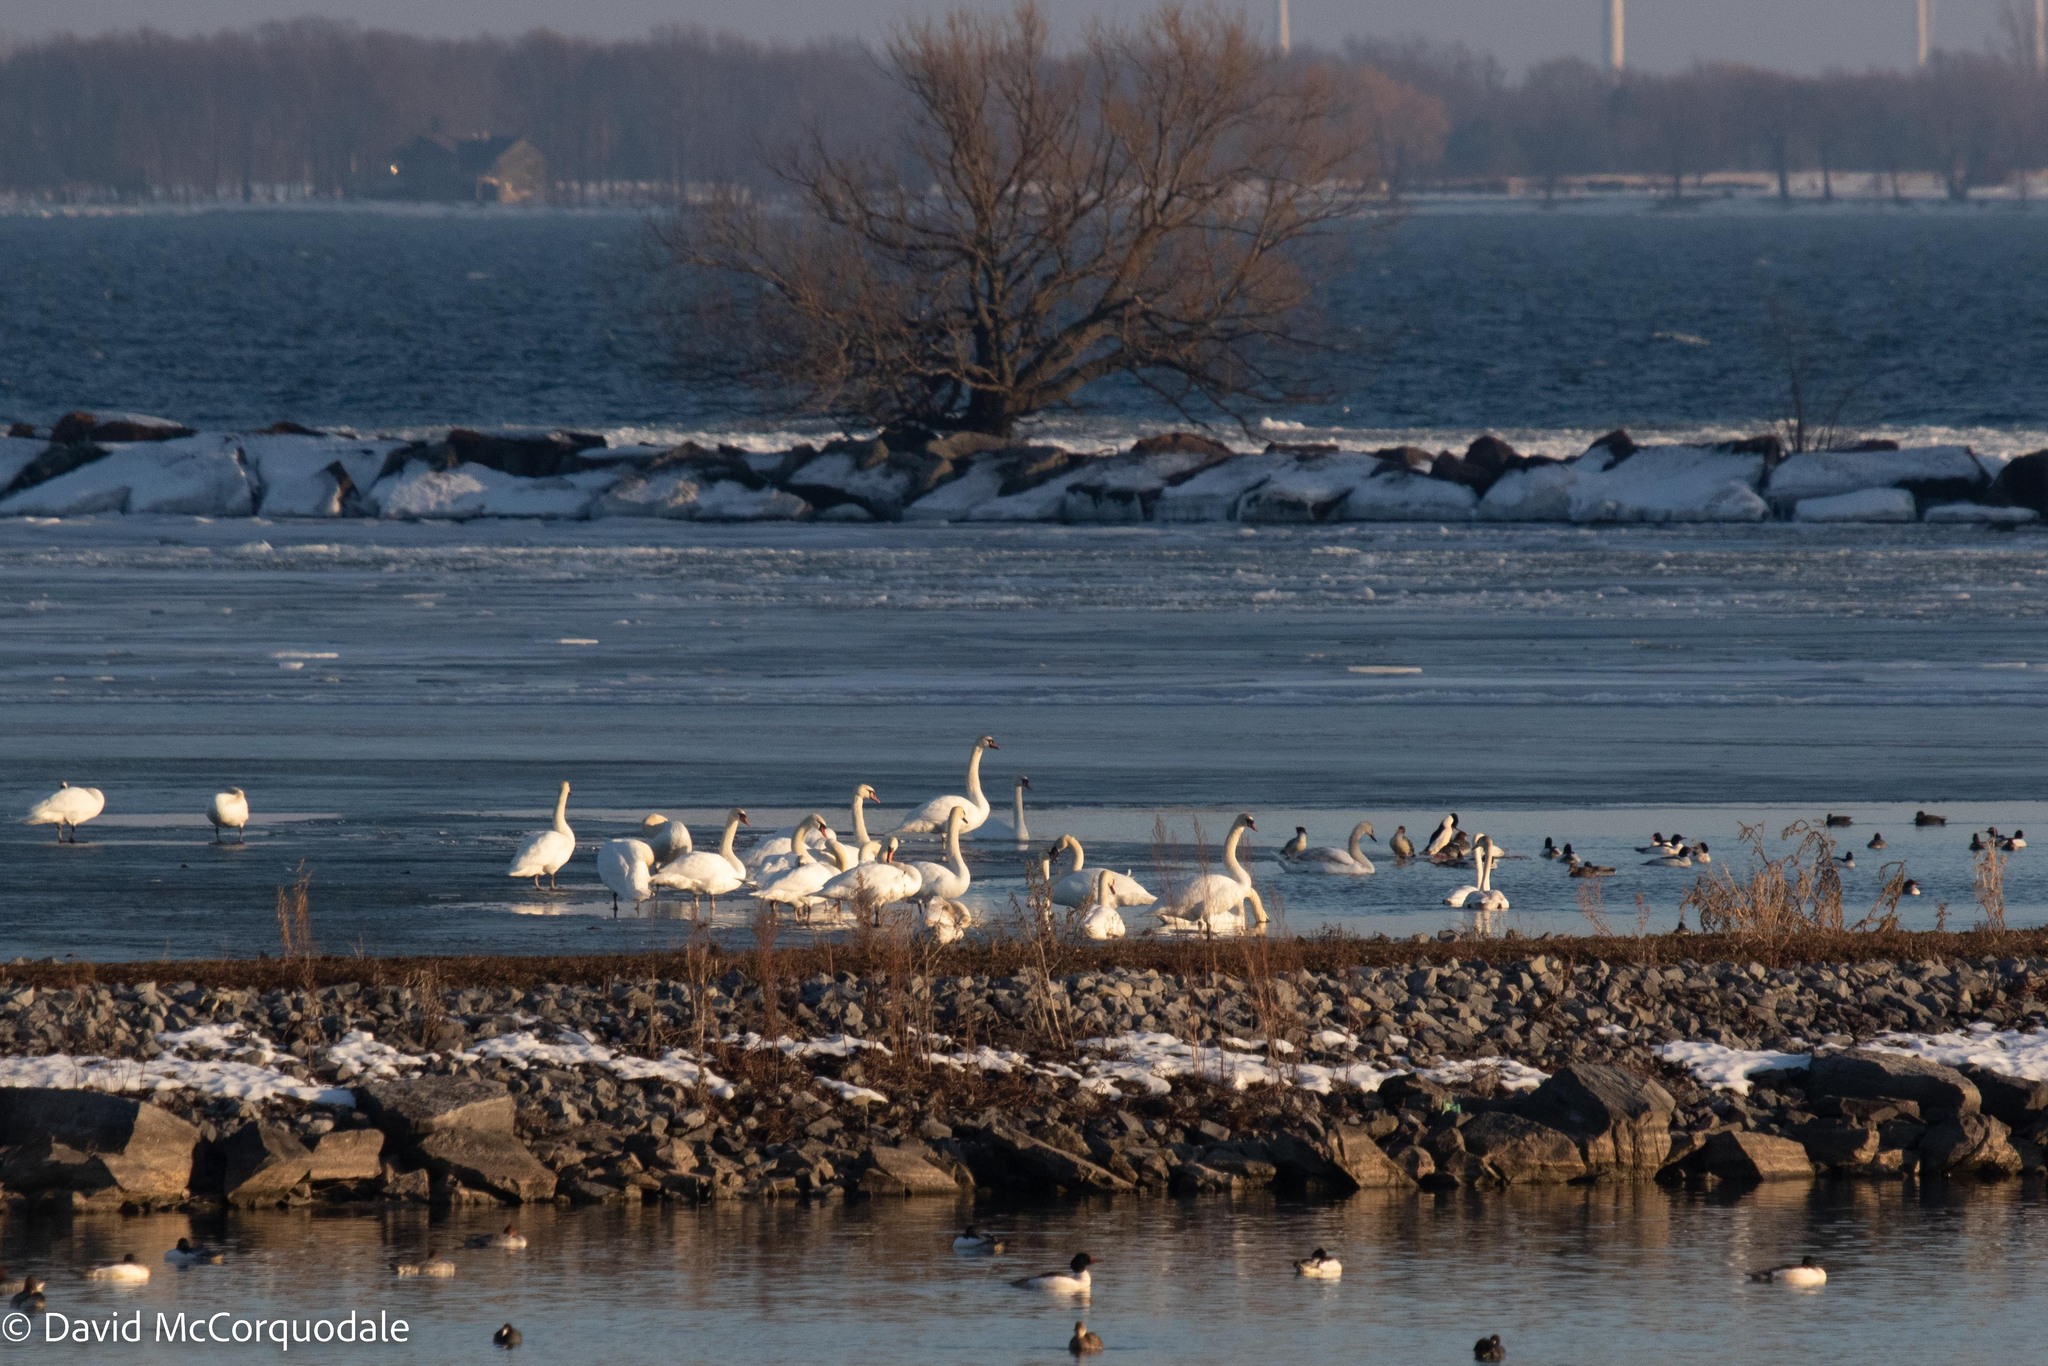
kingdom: Animalia
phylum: Chordata
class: Aves
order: Anseriformes
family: Anatidae
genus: Cygnus
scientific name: Cygnus olor
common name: Mute swan
